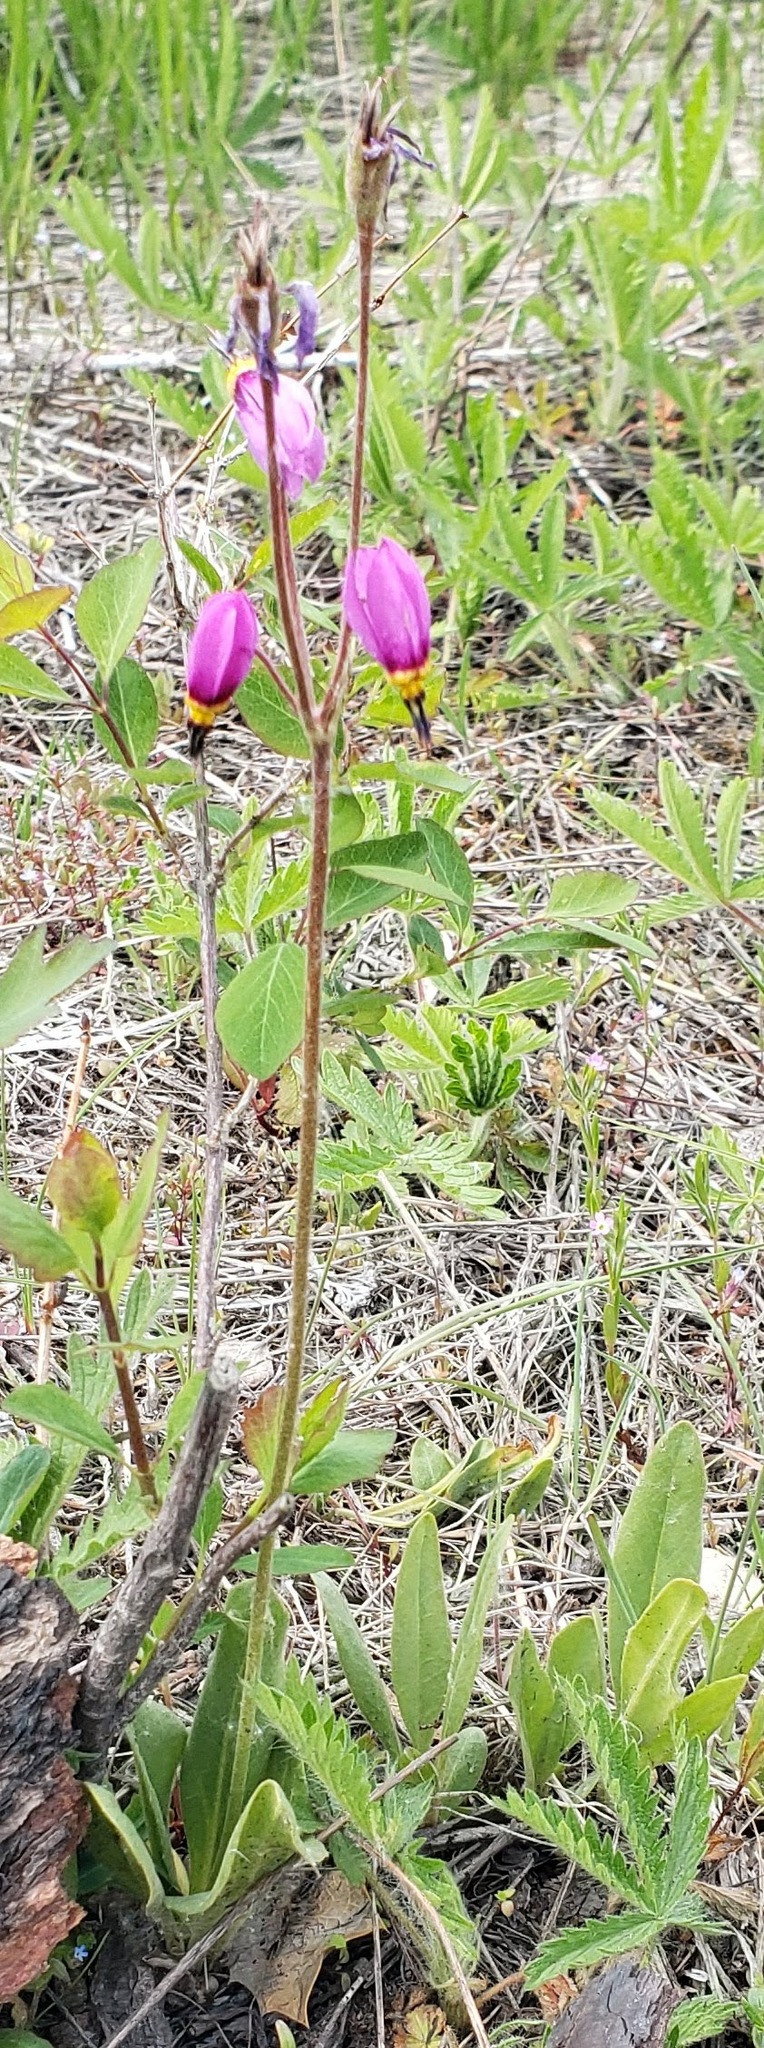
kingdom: Plantae
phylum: Tracheophyta
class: Magnoliopsida
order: Ericales
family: Primulaceae
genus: Dodecatheon
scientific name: Dodecatheon pulchellum
